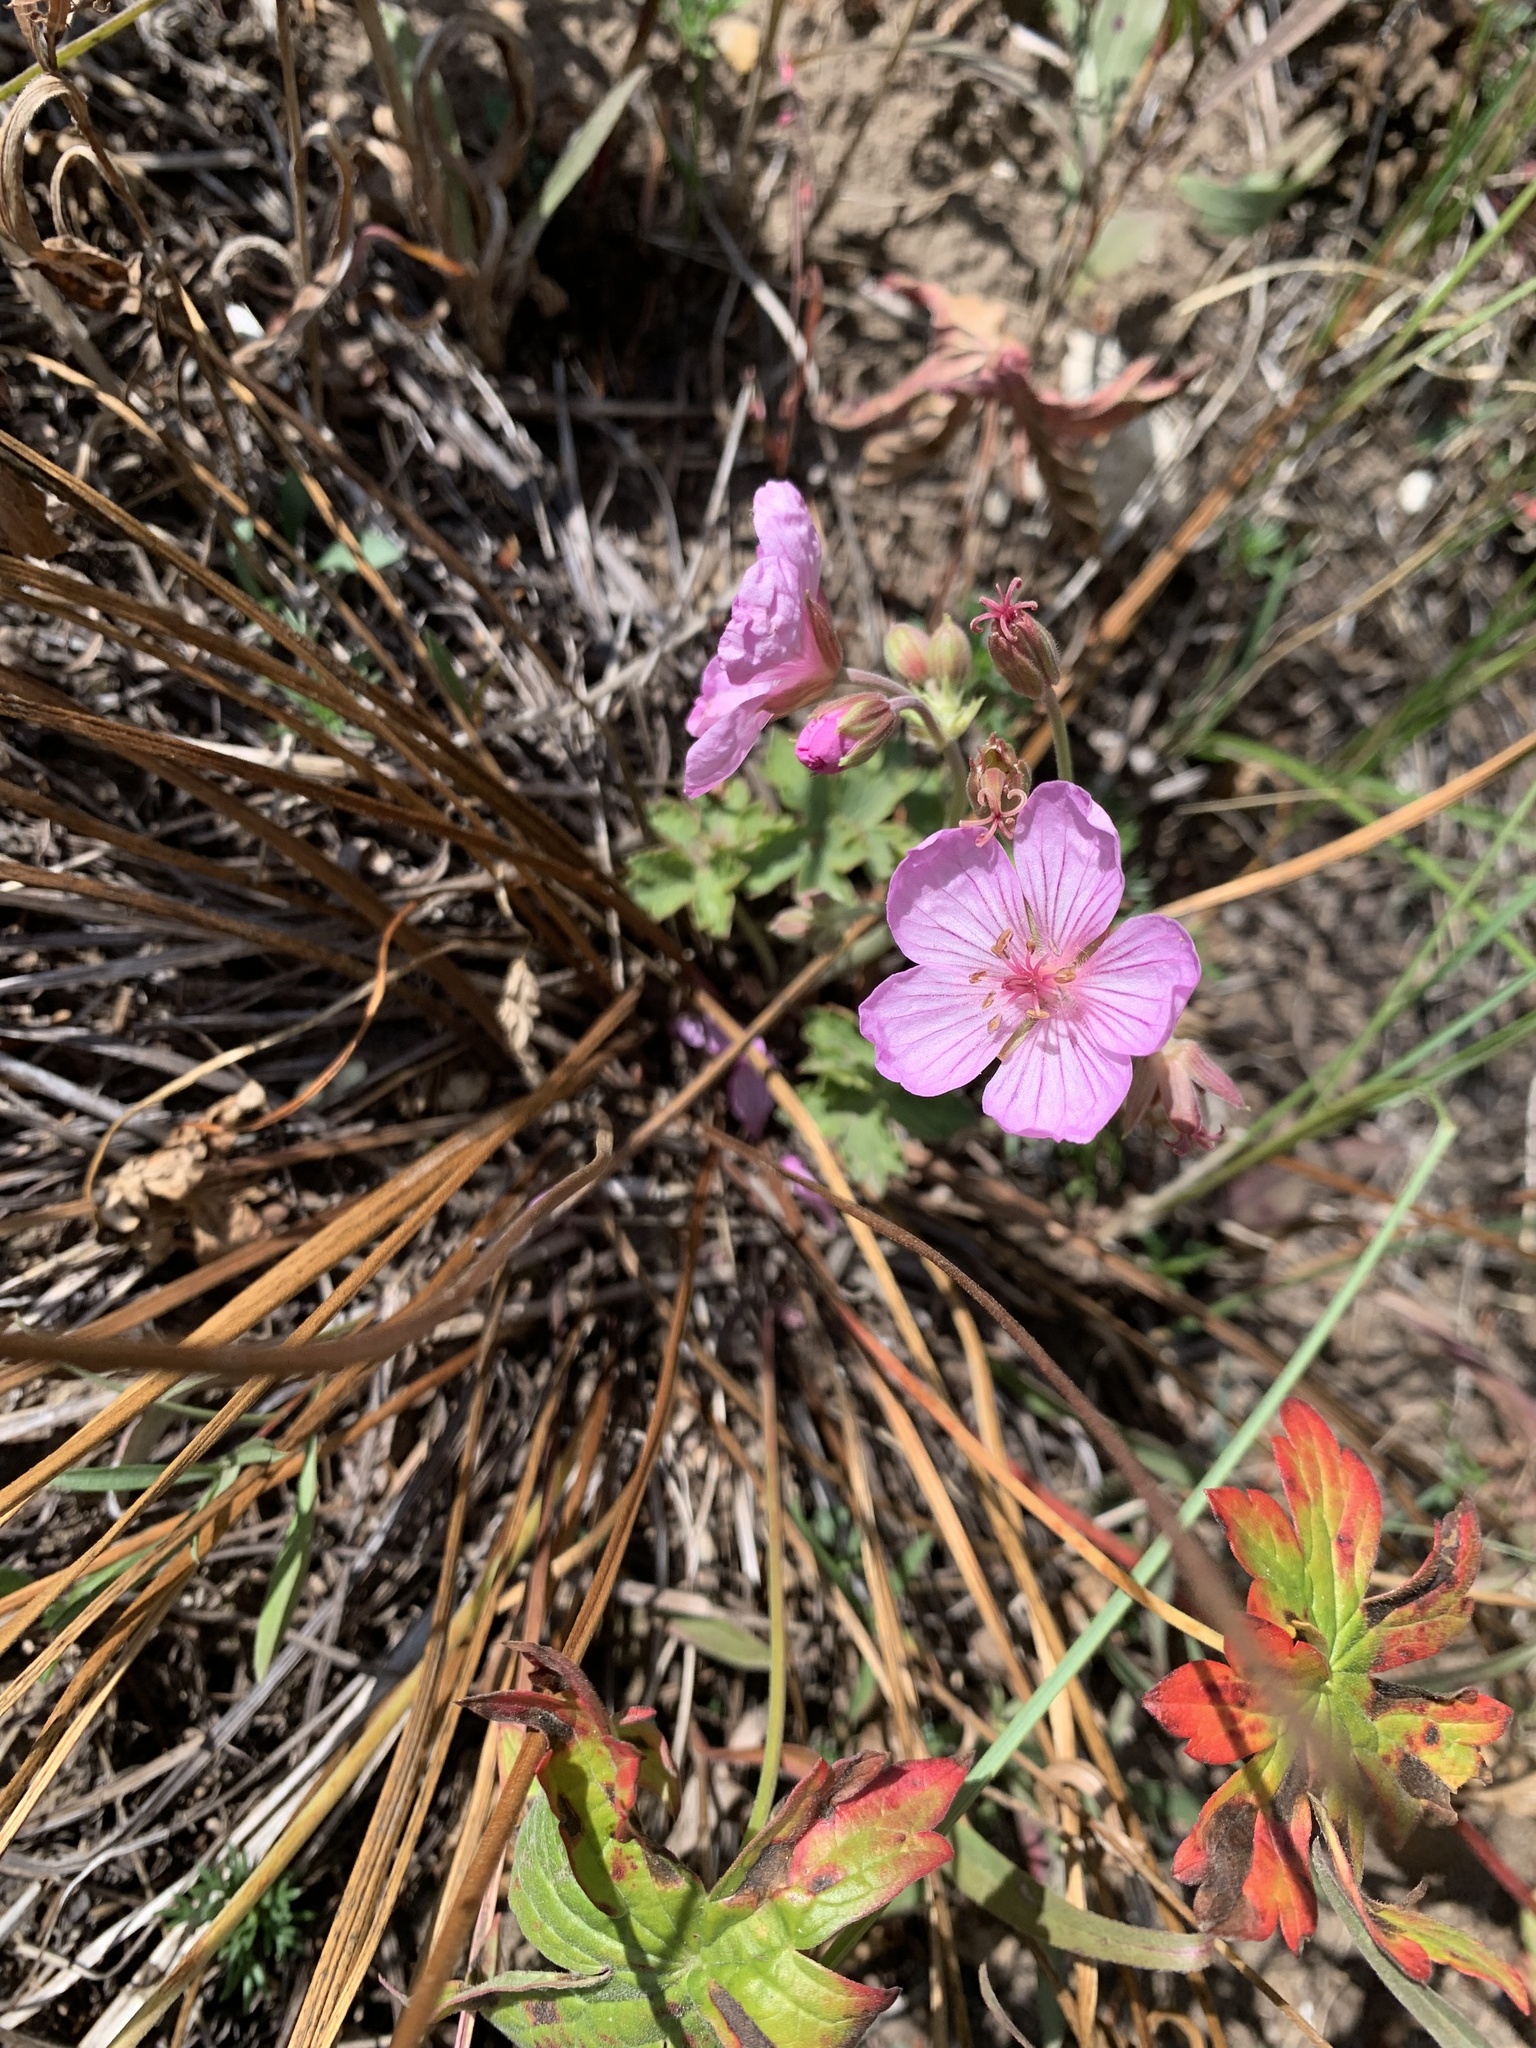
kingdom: Plantae
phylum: Tracheophyta
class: Magnoliopsida
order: Geraniales
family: Geraniaceae
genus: Geranium
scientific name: Geranium viscosissimum
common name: Purple geranium
